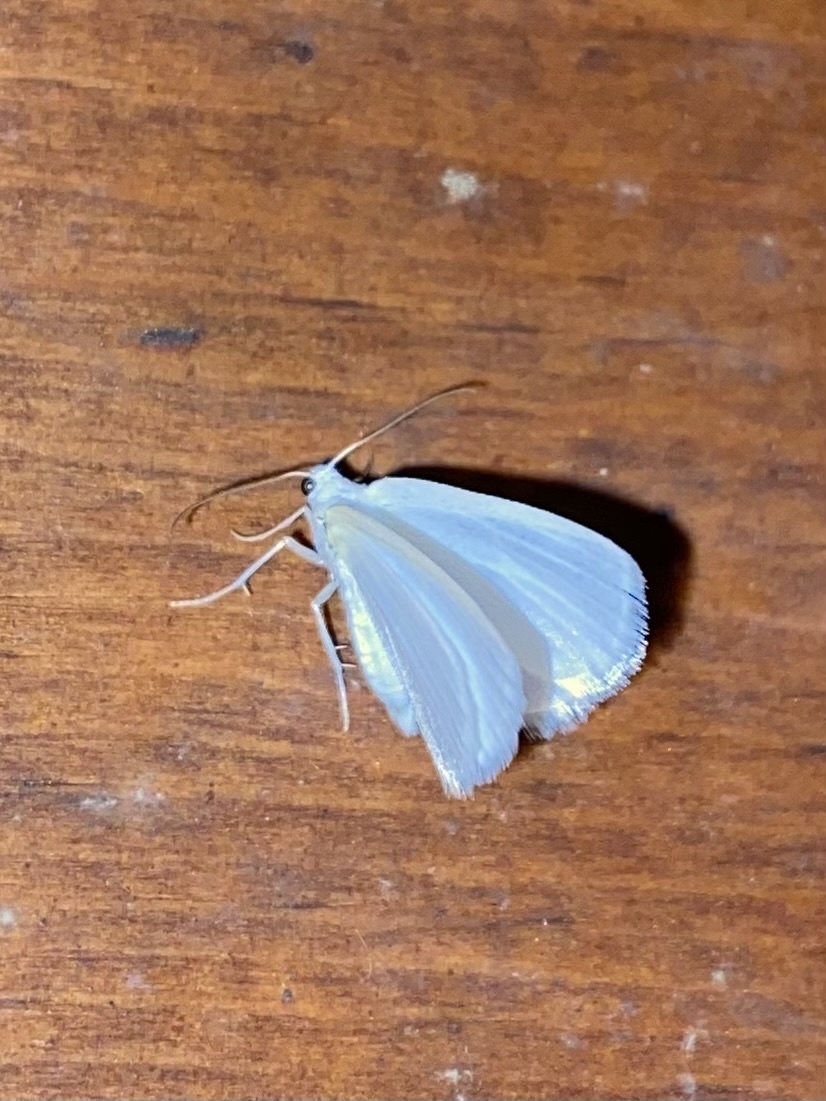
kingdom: Animalia
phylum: Arthropoda
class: Insecta
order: Lepidoptera
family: Geometridae
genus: Lomographa
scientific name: Lomographa vestaliata
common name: White spring moth
